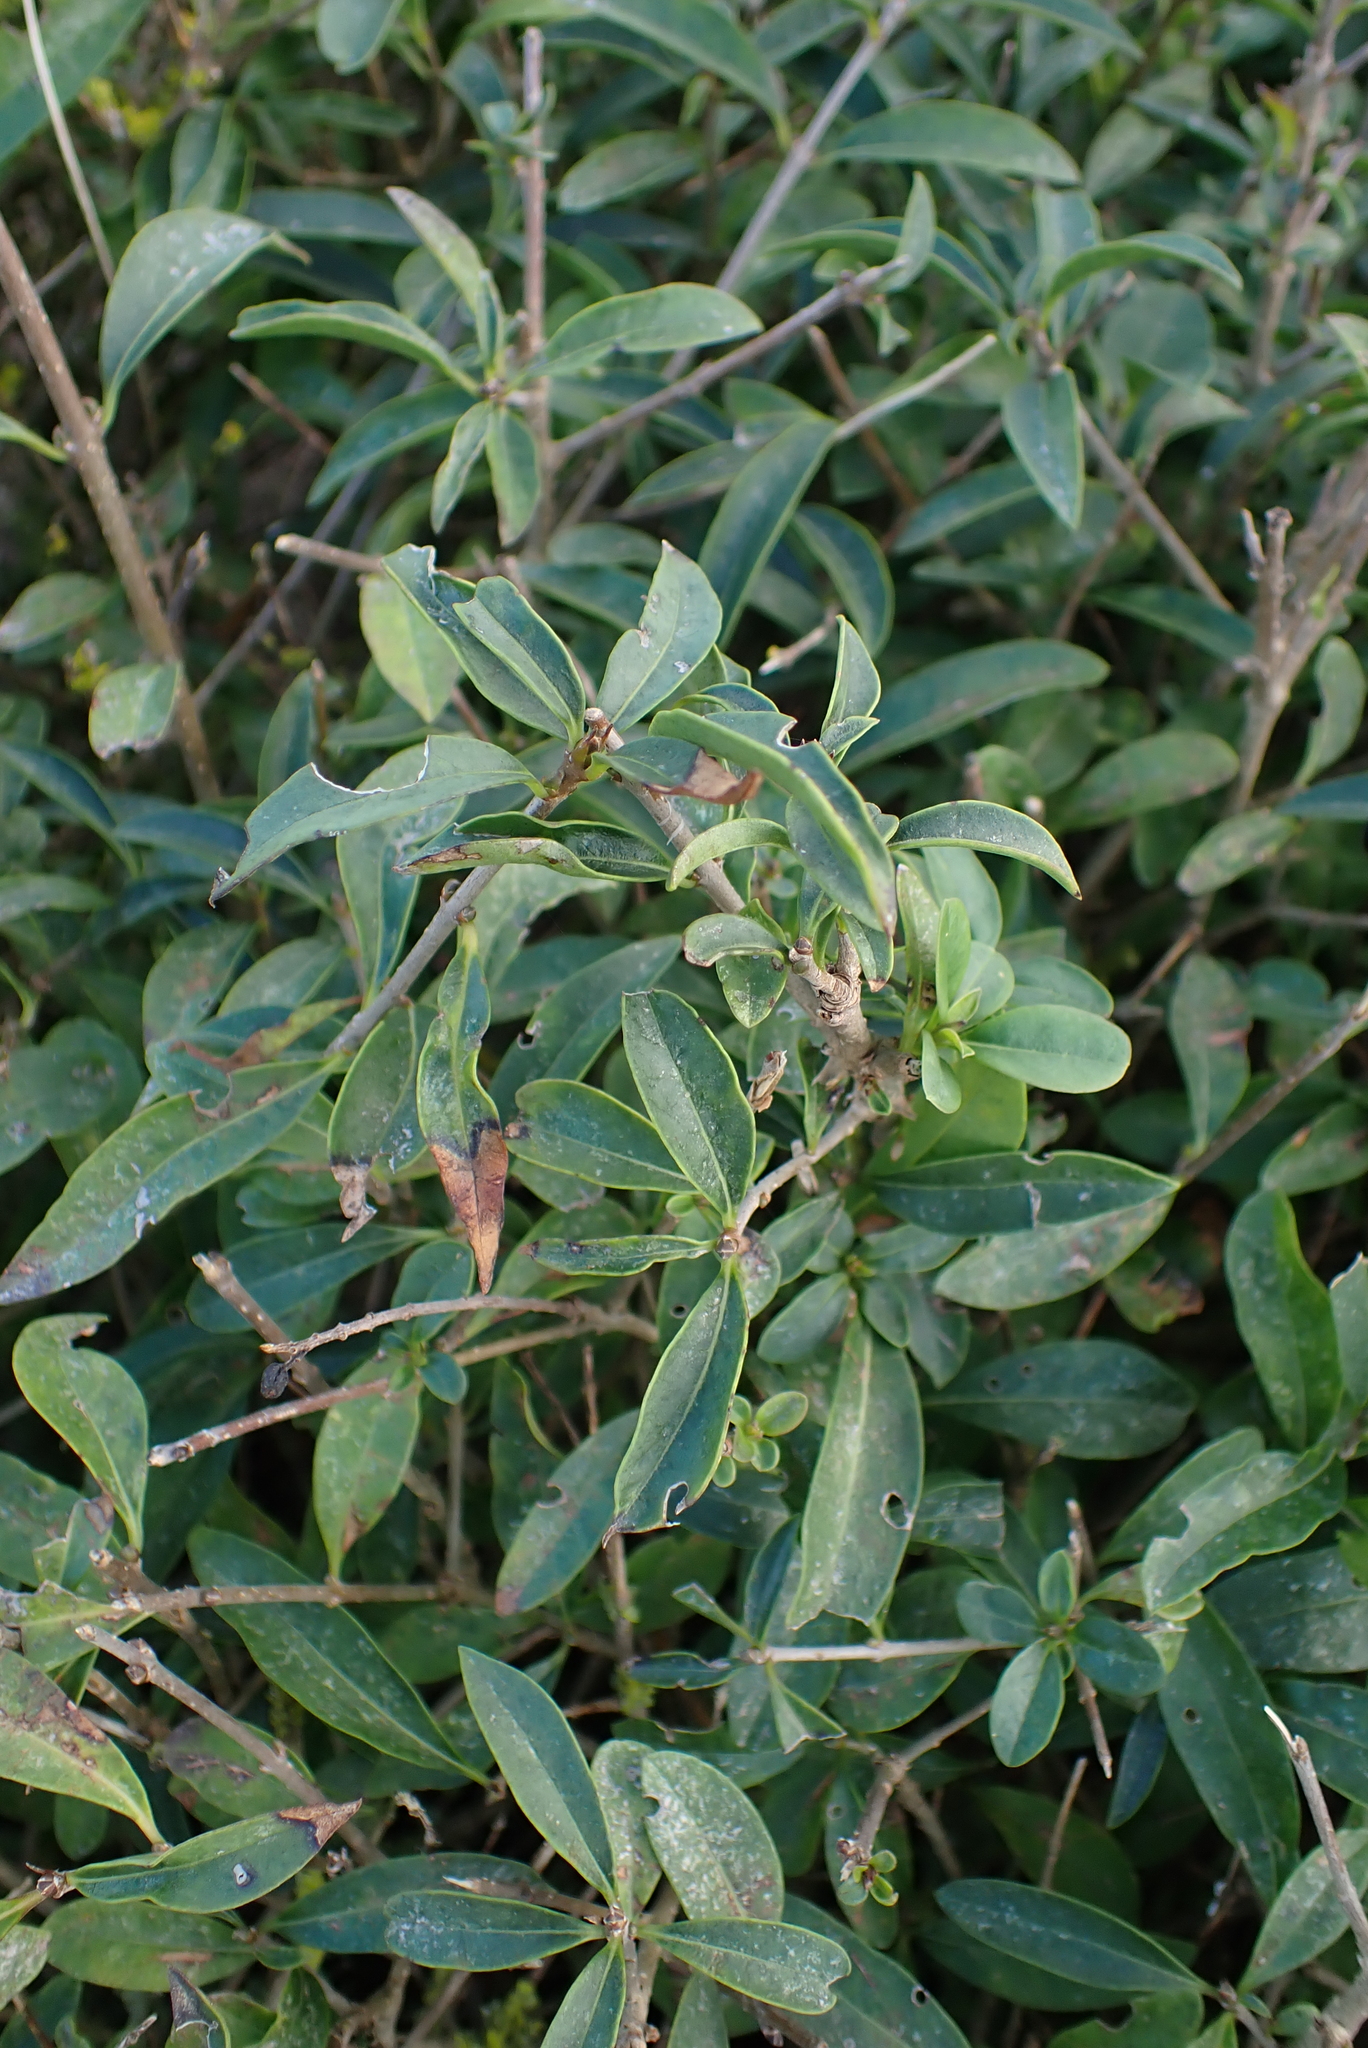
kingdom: Plantae
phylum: Tracheophyta
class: Magnoliopsida
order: Lamiales
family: Oleaceae
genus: Ligustrum
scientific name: Ligustrum vulgare
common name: Wild privet
